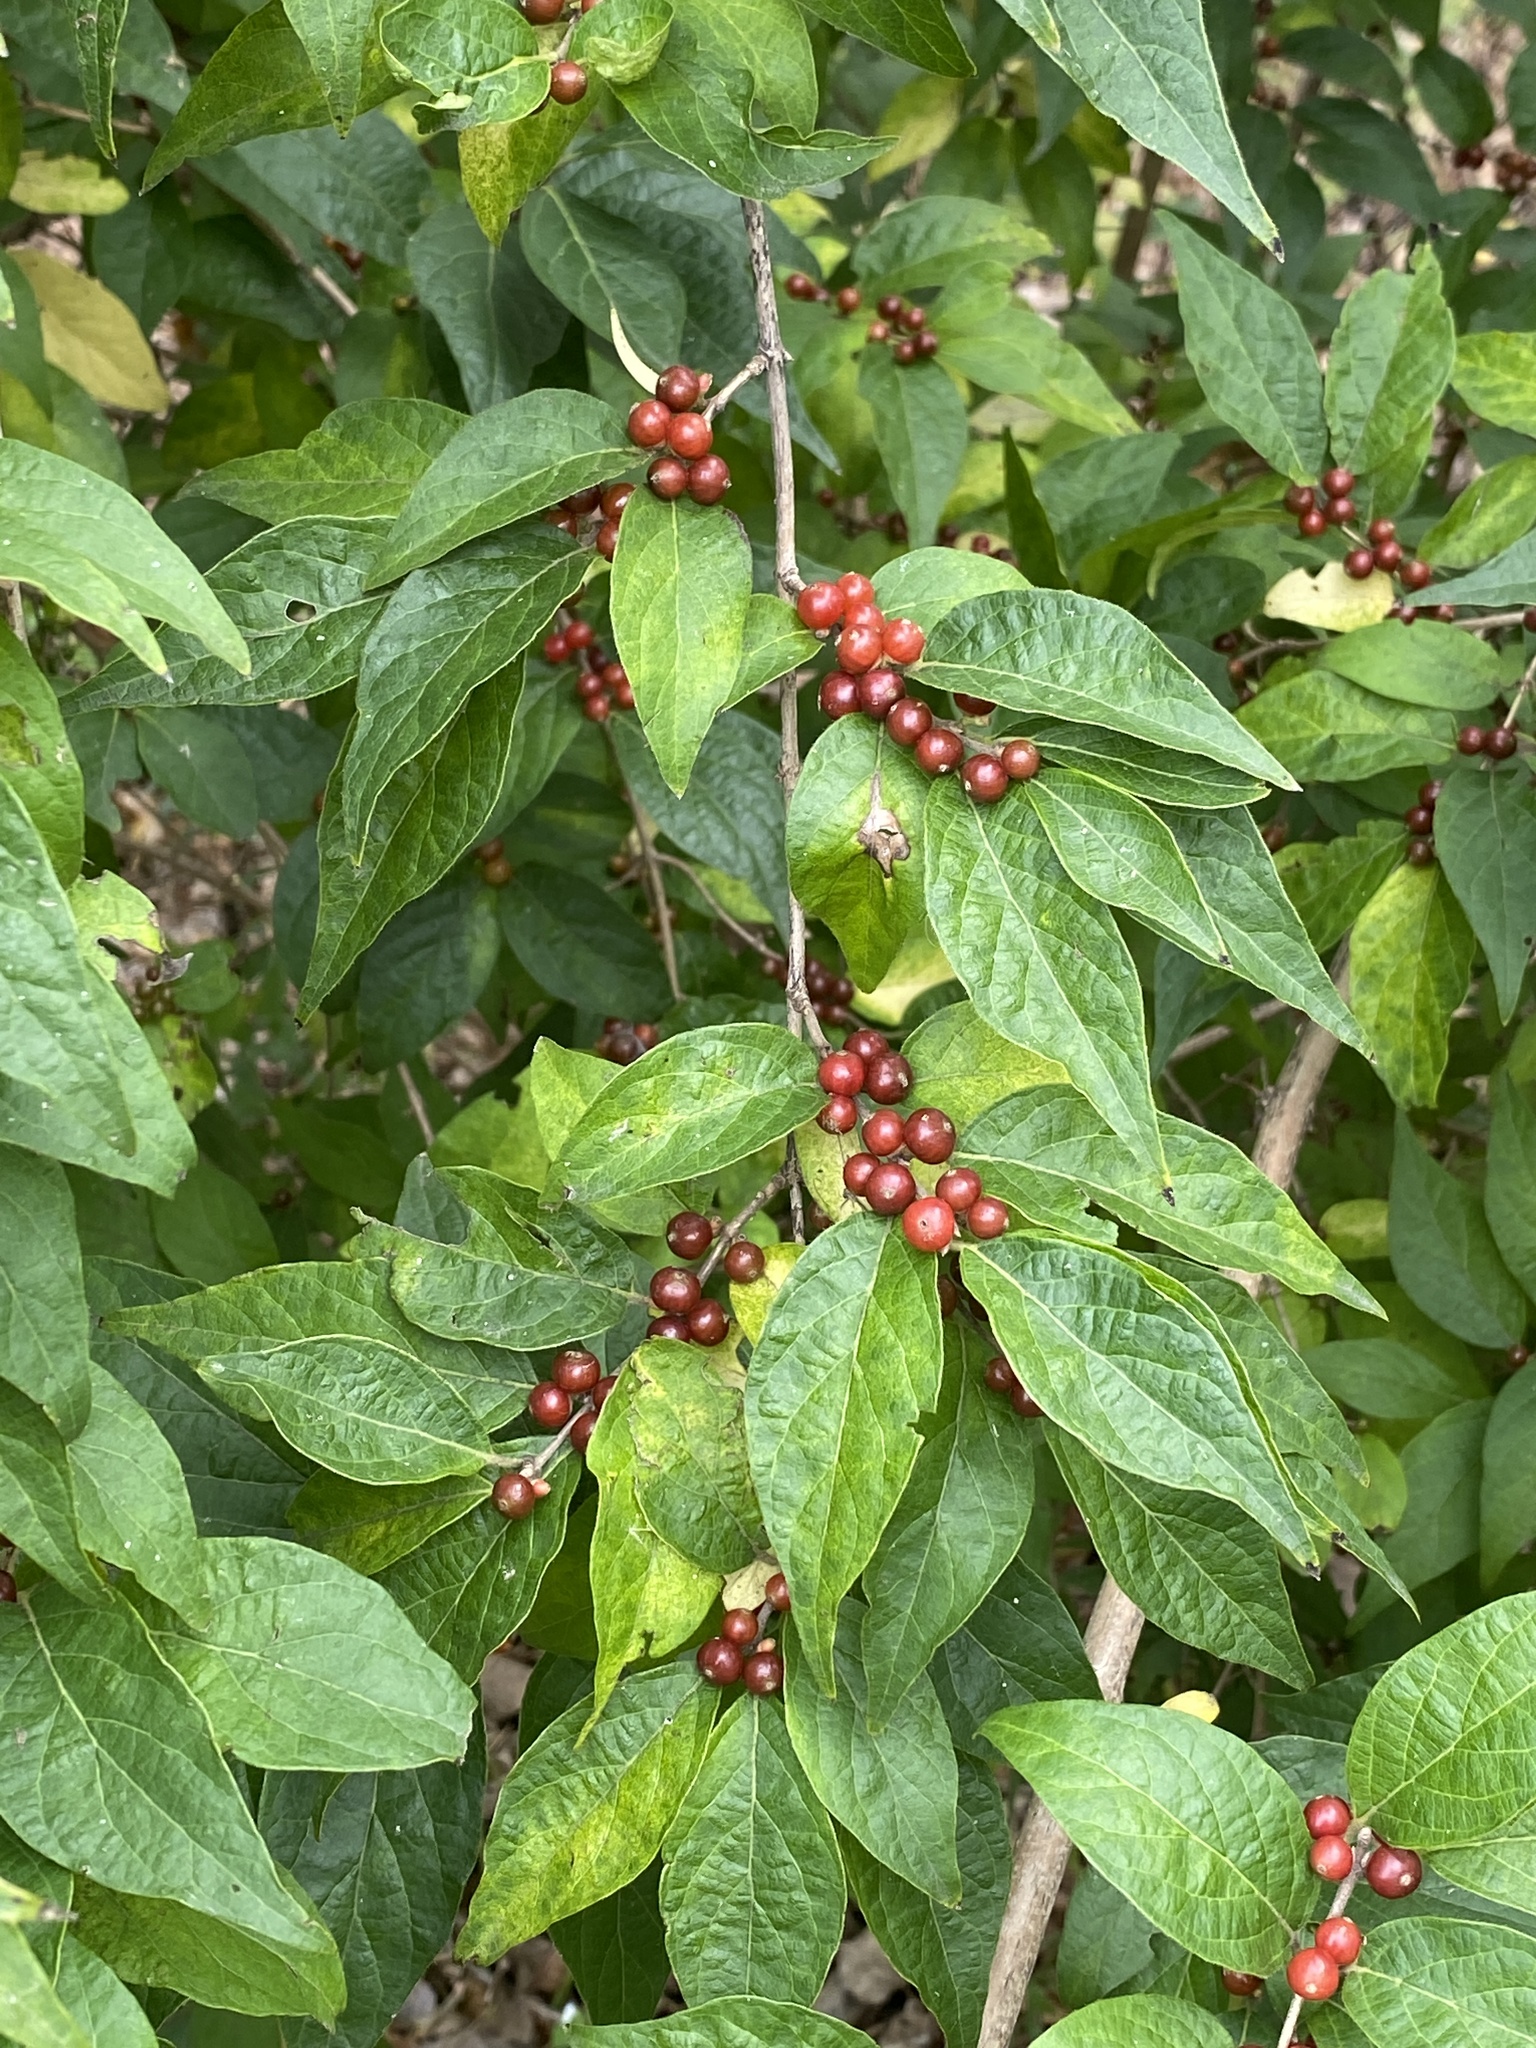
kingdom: Plantae
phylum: Tracheophyta
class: Magnoliopsida
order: Dipsacales
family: Caprifoliaceae
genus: Lonicera
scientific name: Lonicera maackii
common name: Amur honeysuckle
